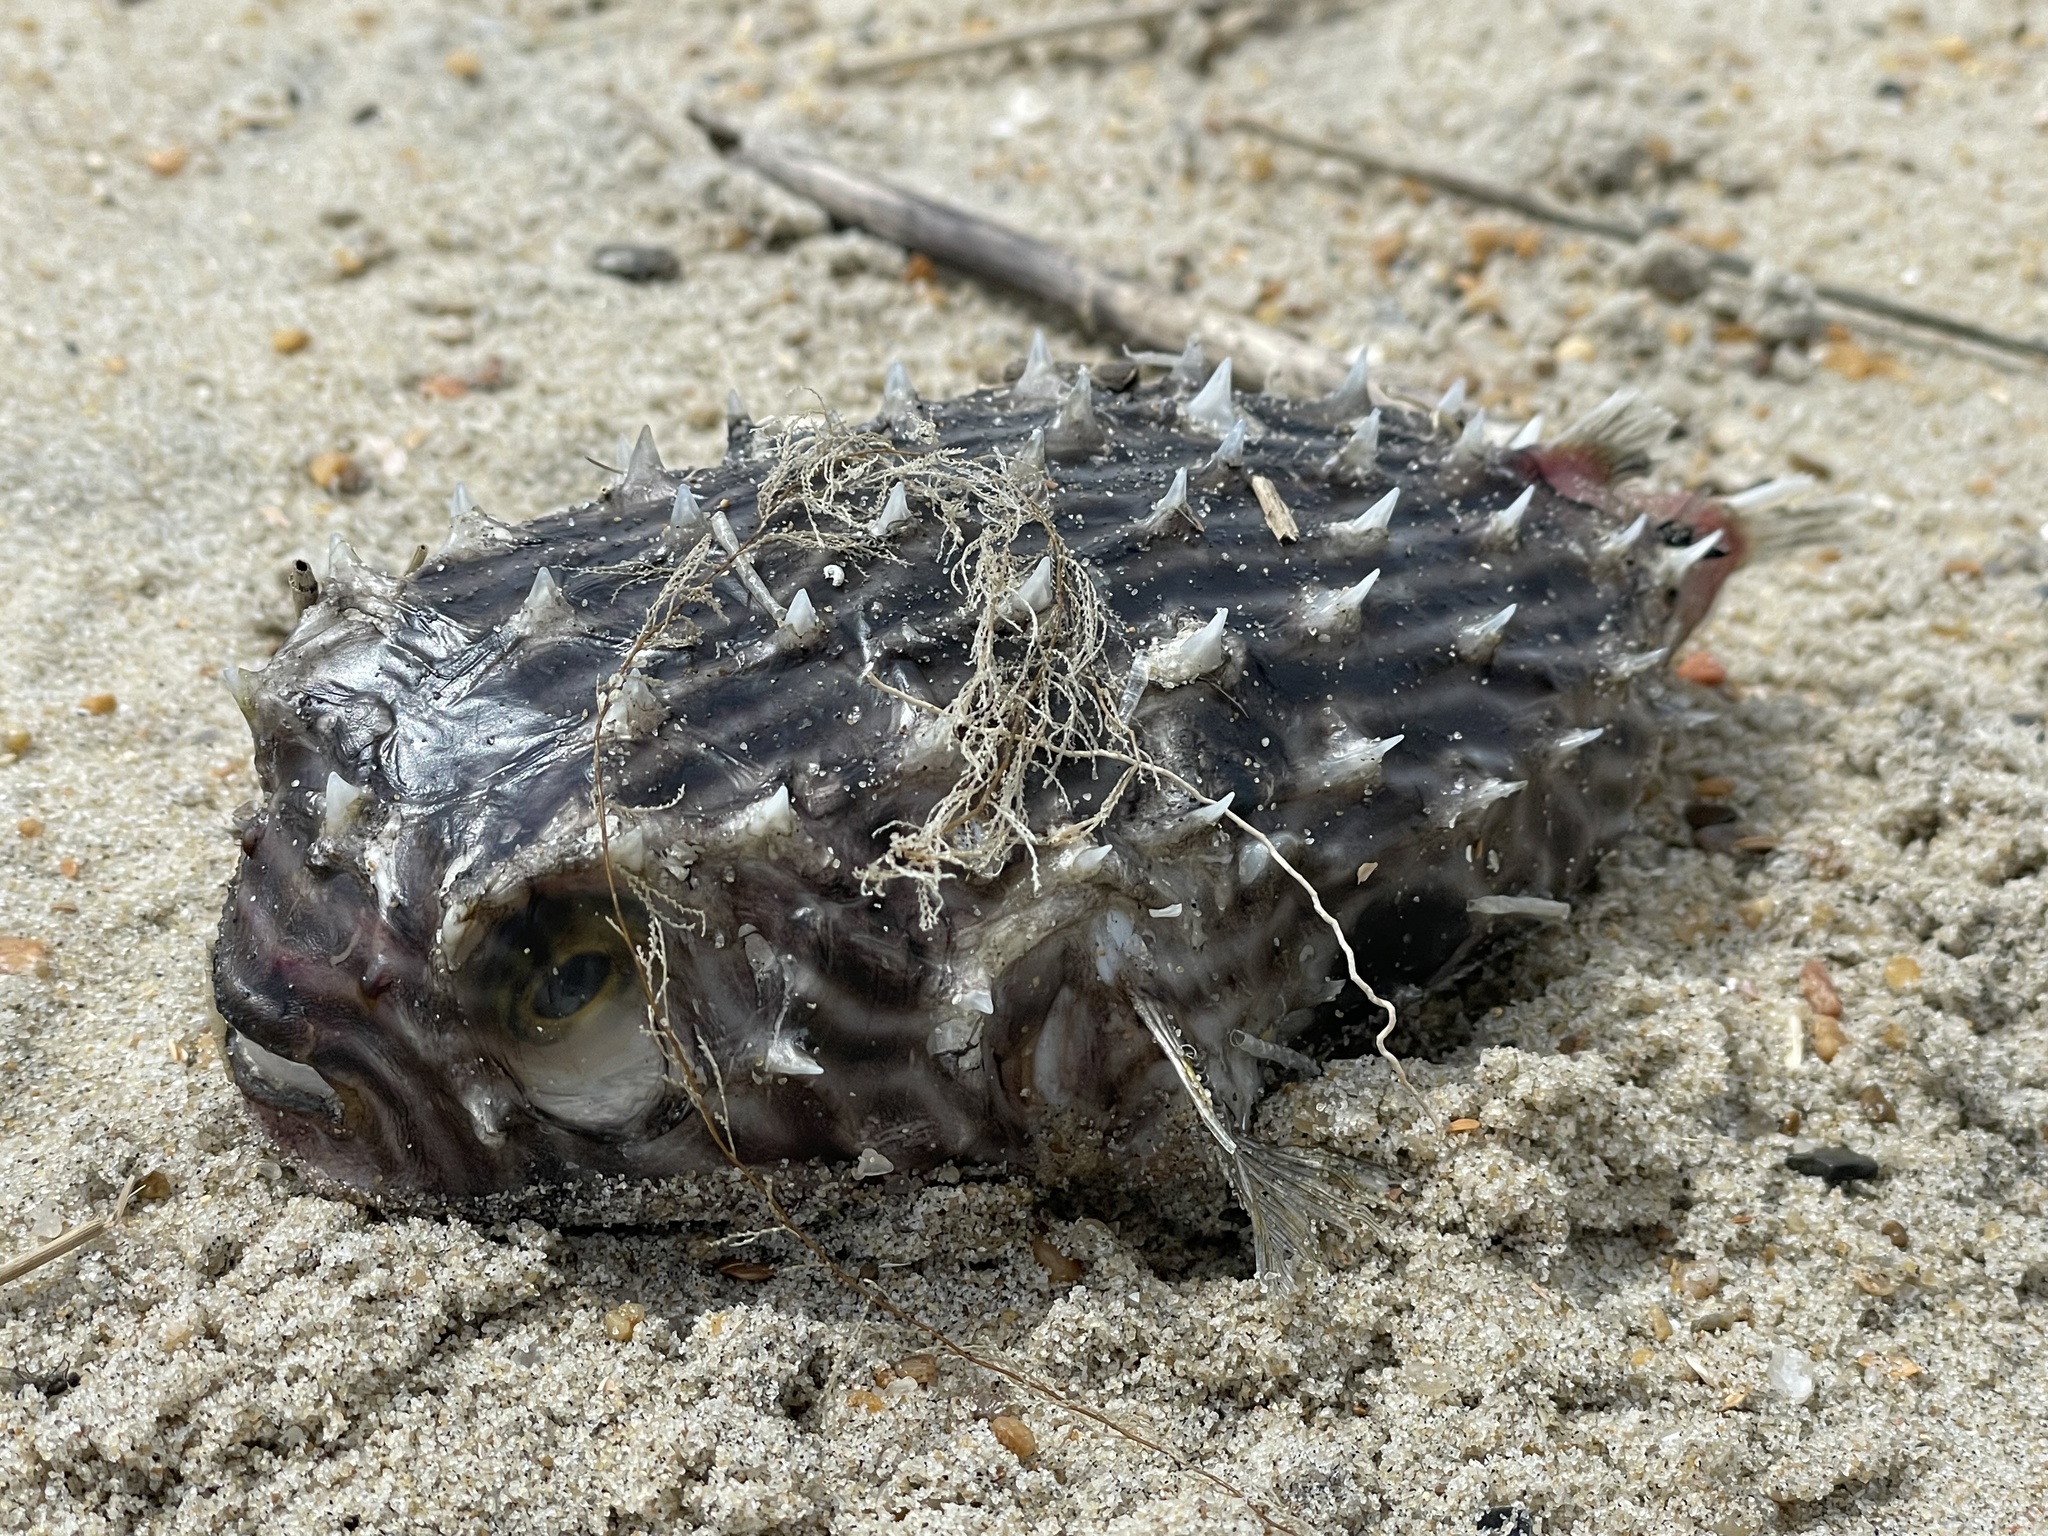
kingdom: Animalia
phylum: Chordata
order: Tetraodontiformes
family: Diodontidae
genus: Chilomycterus
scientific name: Chilomycterus schoepfii
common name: Striped burrfish
